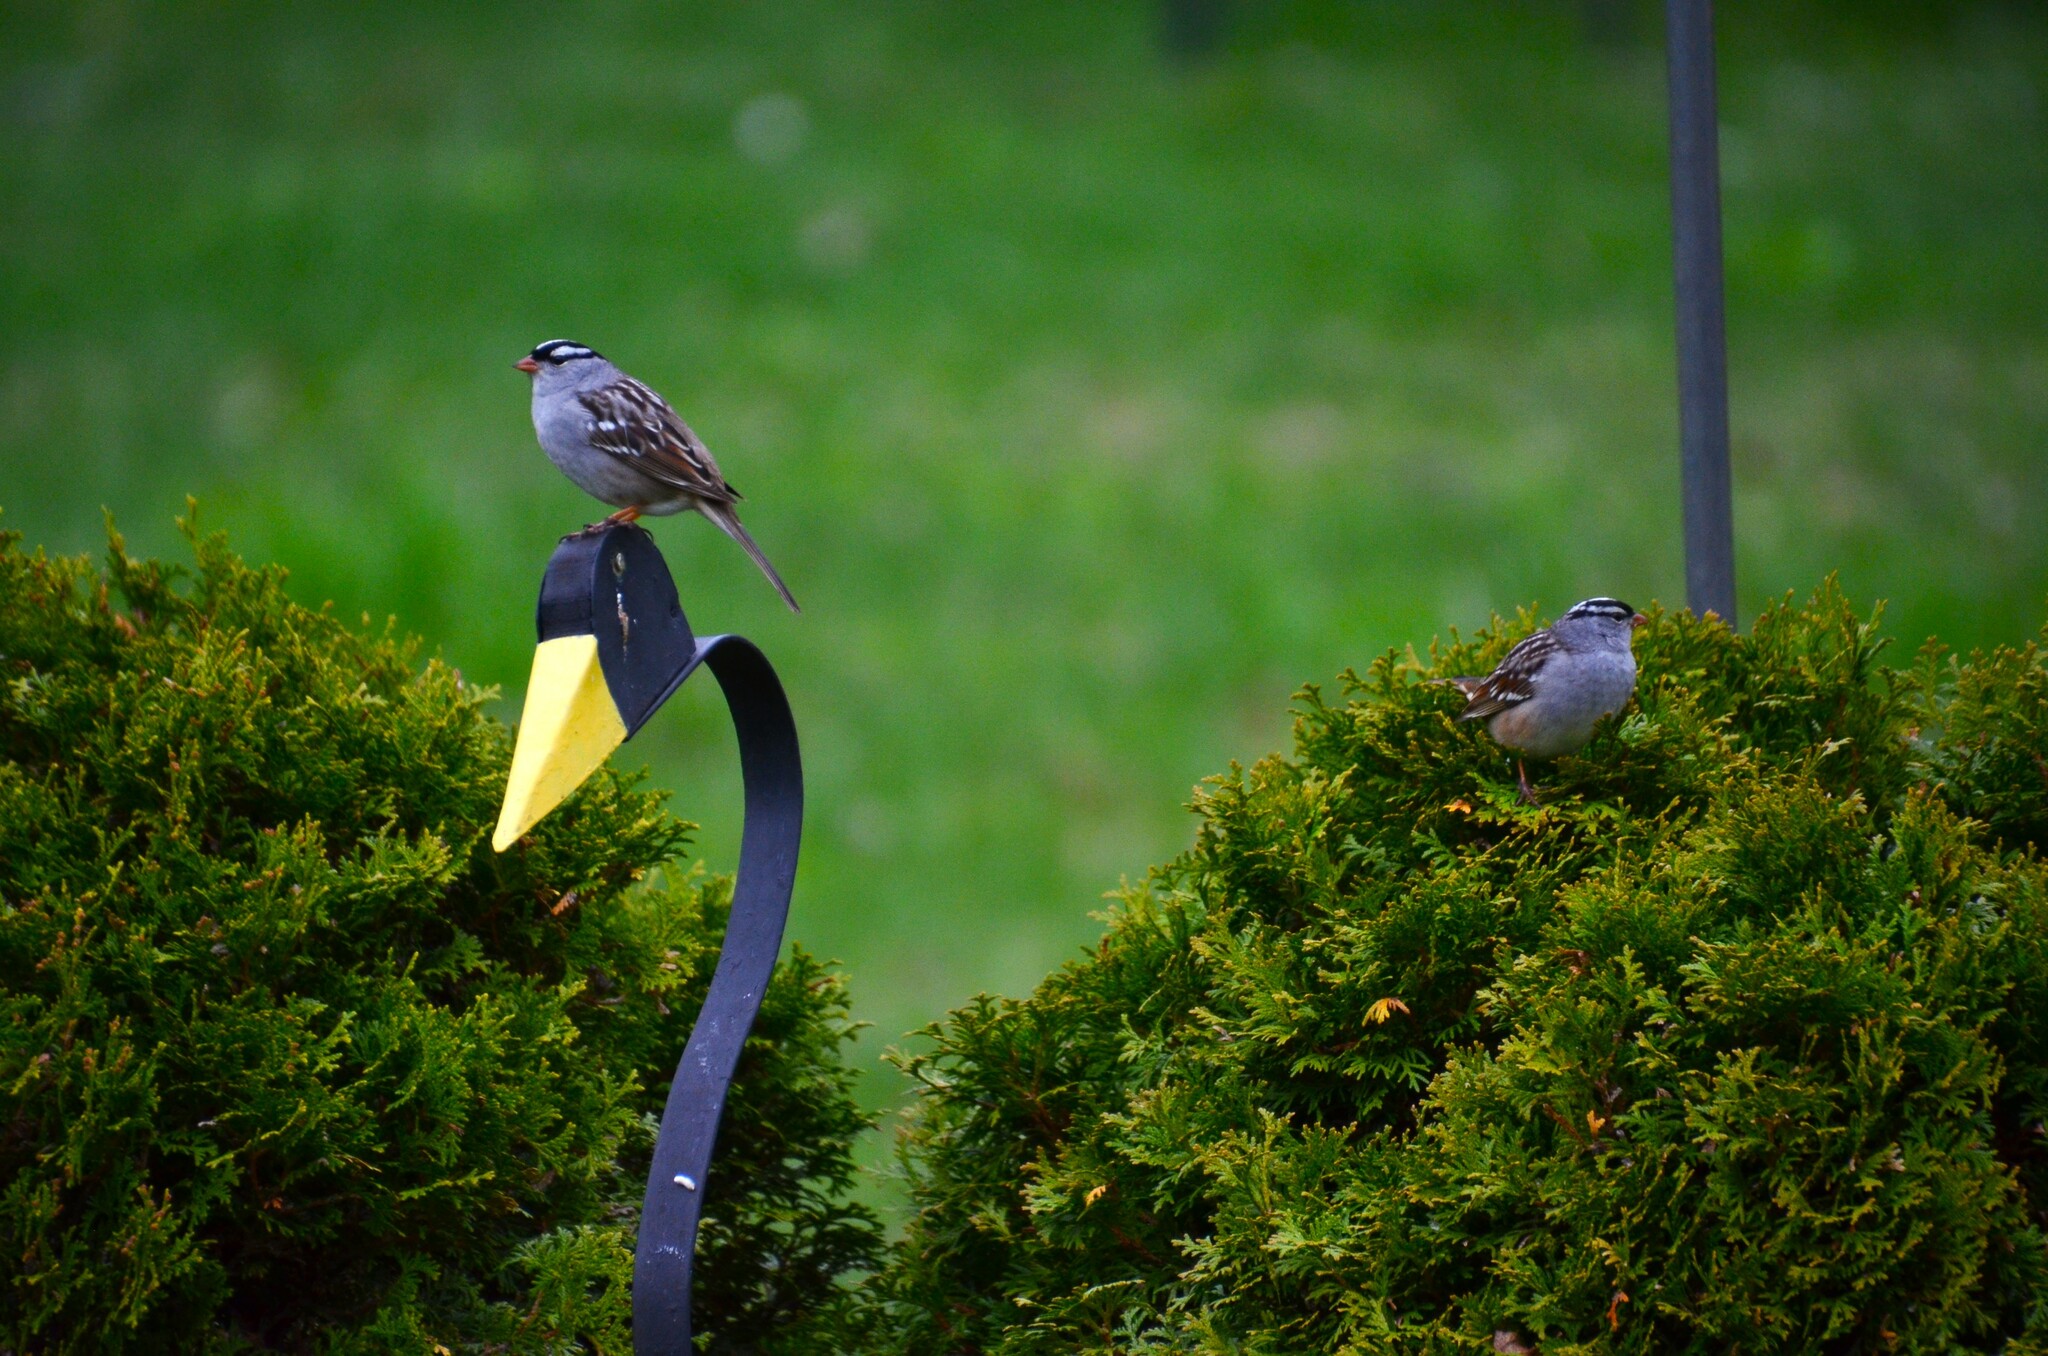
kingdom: Animalia
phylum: Chordata
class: Aves
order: Passeriformes
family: Passerellidae
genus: Zonotrichia
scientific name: Zonotrichia leucophrys
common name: White-crowned sparrow
